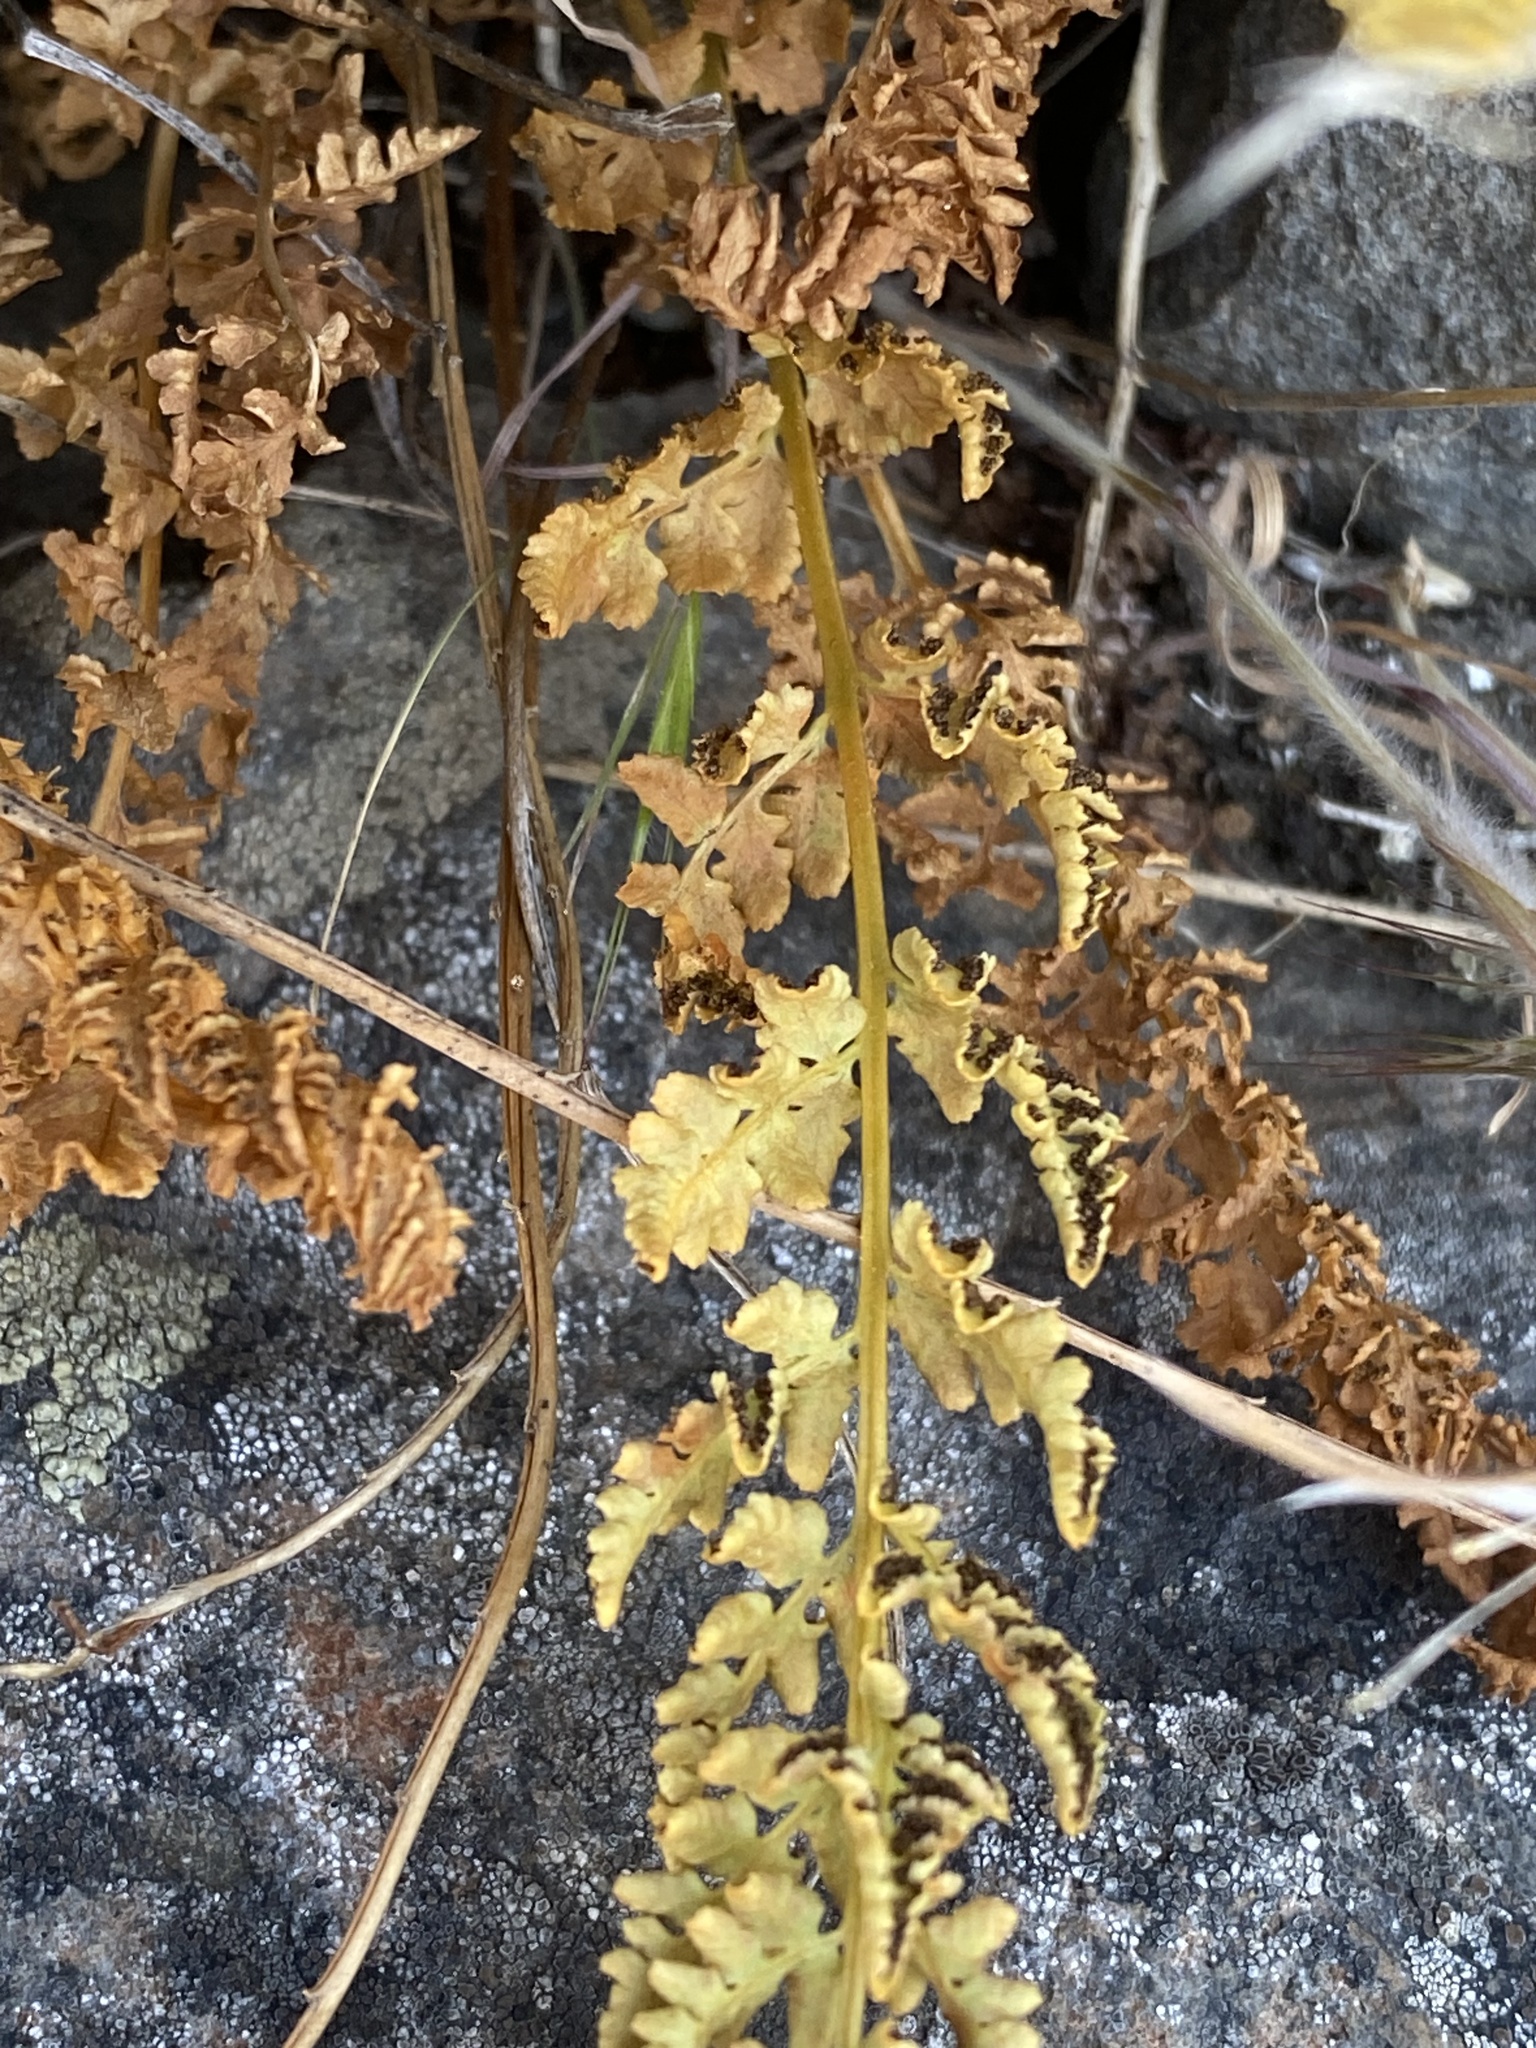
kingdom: Plantae
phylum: Tracheophyta
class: Polypodiopsida
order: Polypodiales
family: Woodsiaceae
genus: Physematium
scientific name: Physematium oreganum
